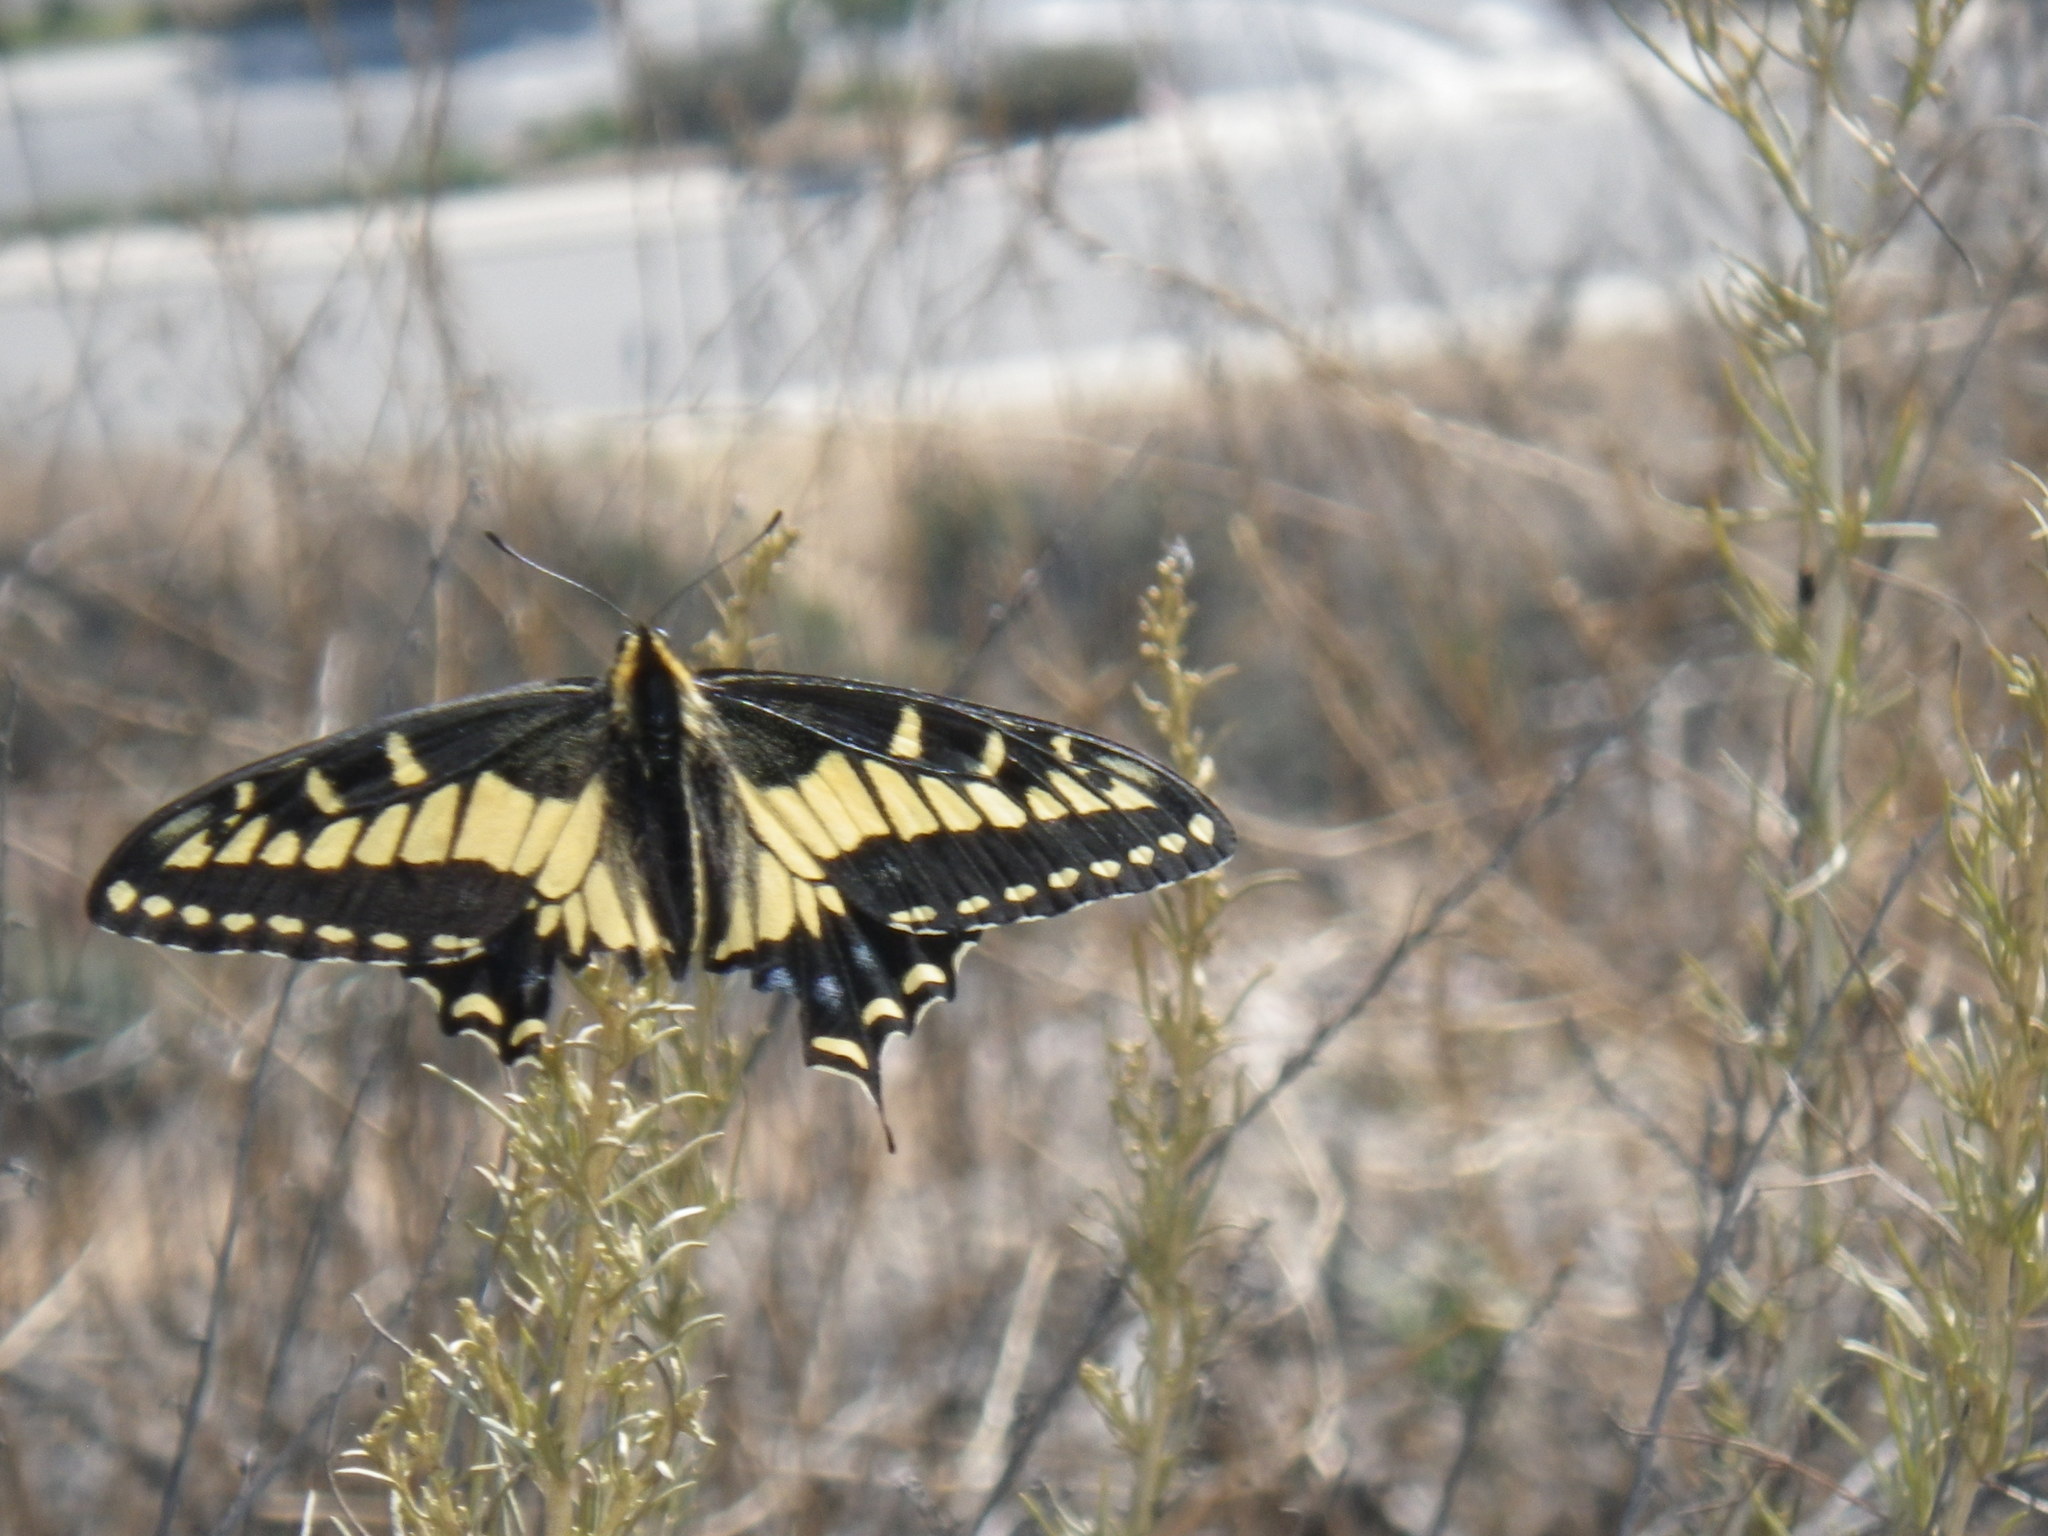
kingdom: Animalia
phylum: Arthropoda
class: Insecta
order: Lepidoptera
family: Papilionidae
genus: Papilio
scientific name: Papilio zelicaon
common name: Anise swallowtail
